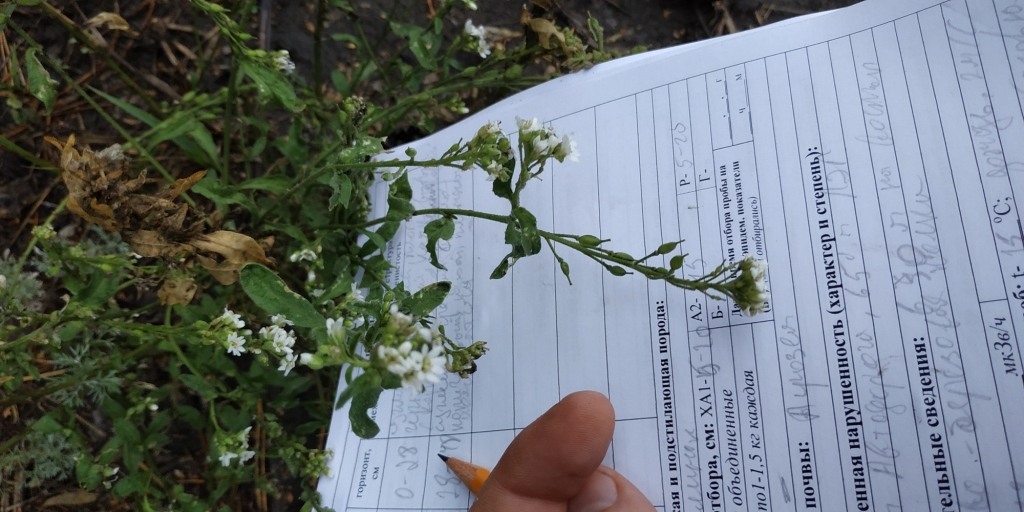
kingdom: Plantae
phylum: Tracheophyta
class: Magnoliopsida
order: Brassicales
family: Brassicaceae
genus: Berteroa
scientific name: Berteroa incana
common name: Hoary alison
